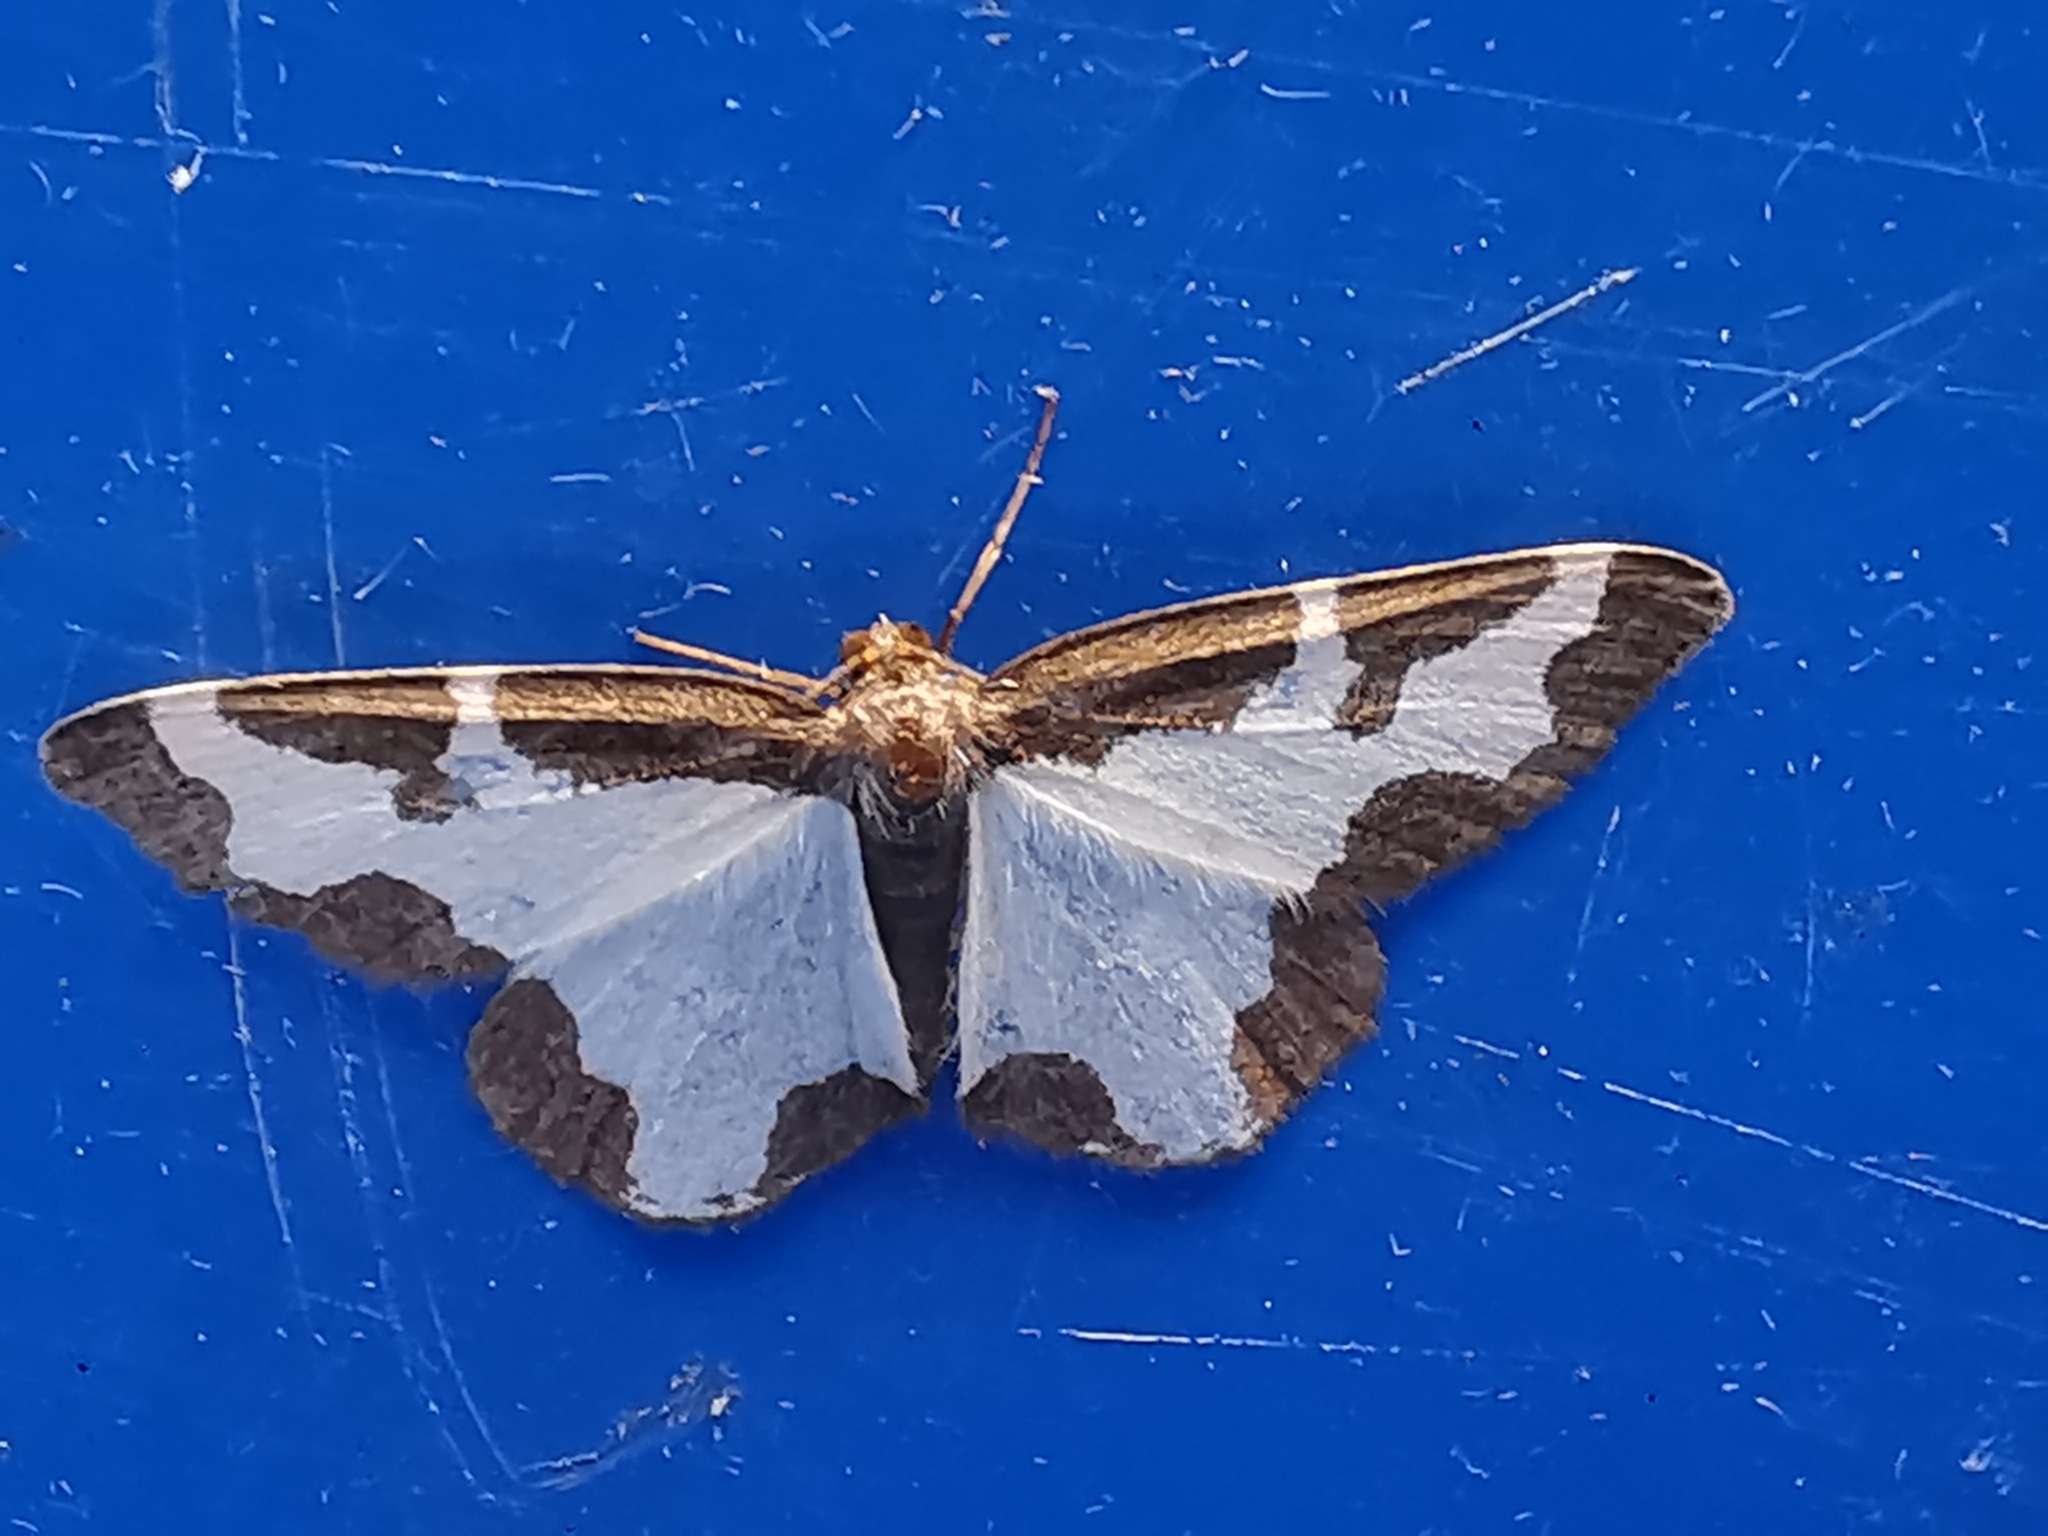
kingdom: Animalia
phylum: Arthropoda
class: Insecta
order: Lepidoptera
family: Geometridae
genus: Lomaspilis
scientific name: Lomaspilis marginata
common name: Clouded border
